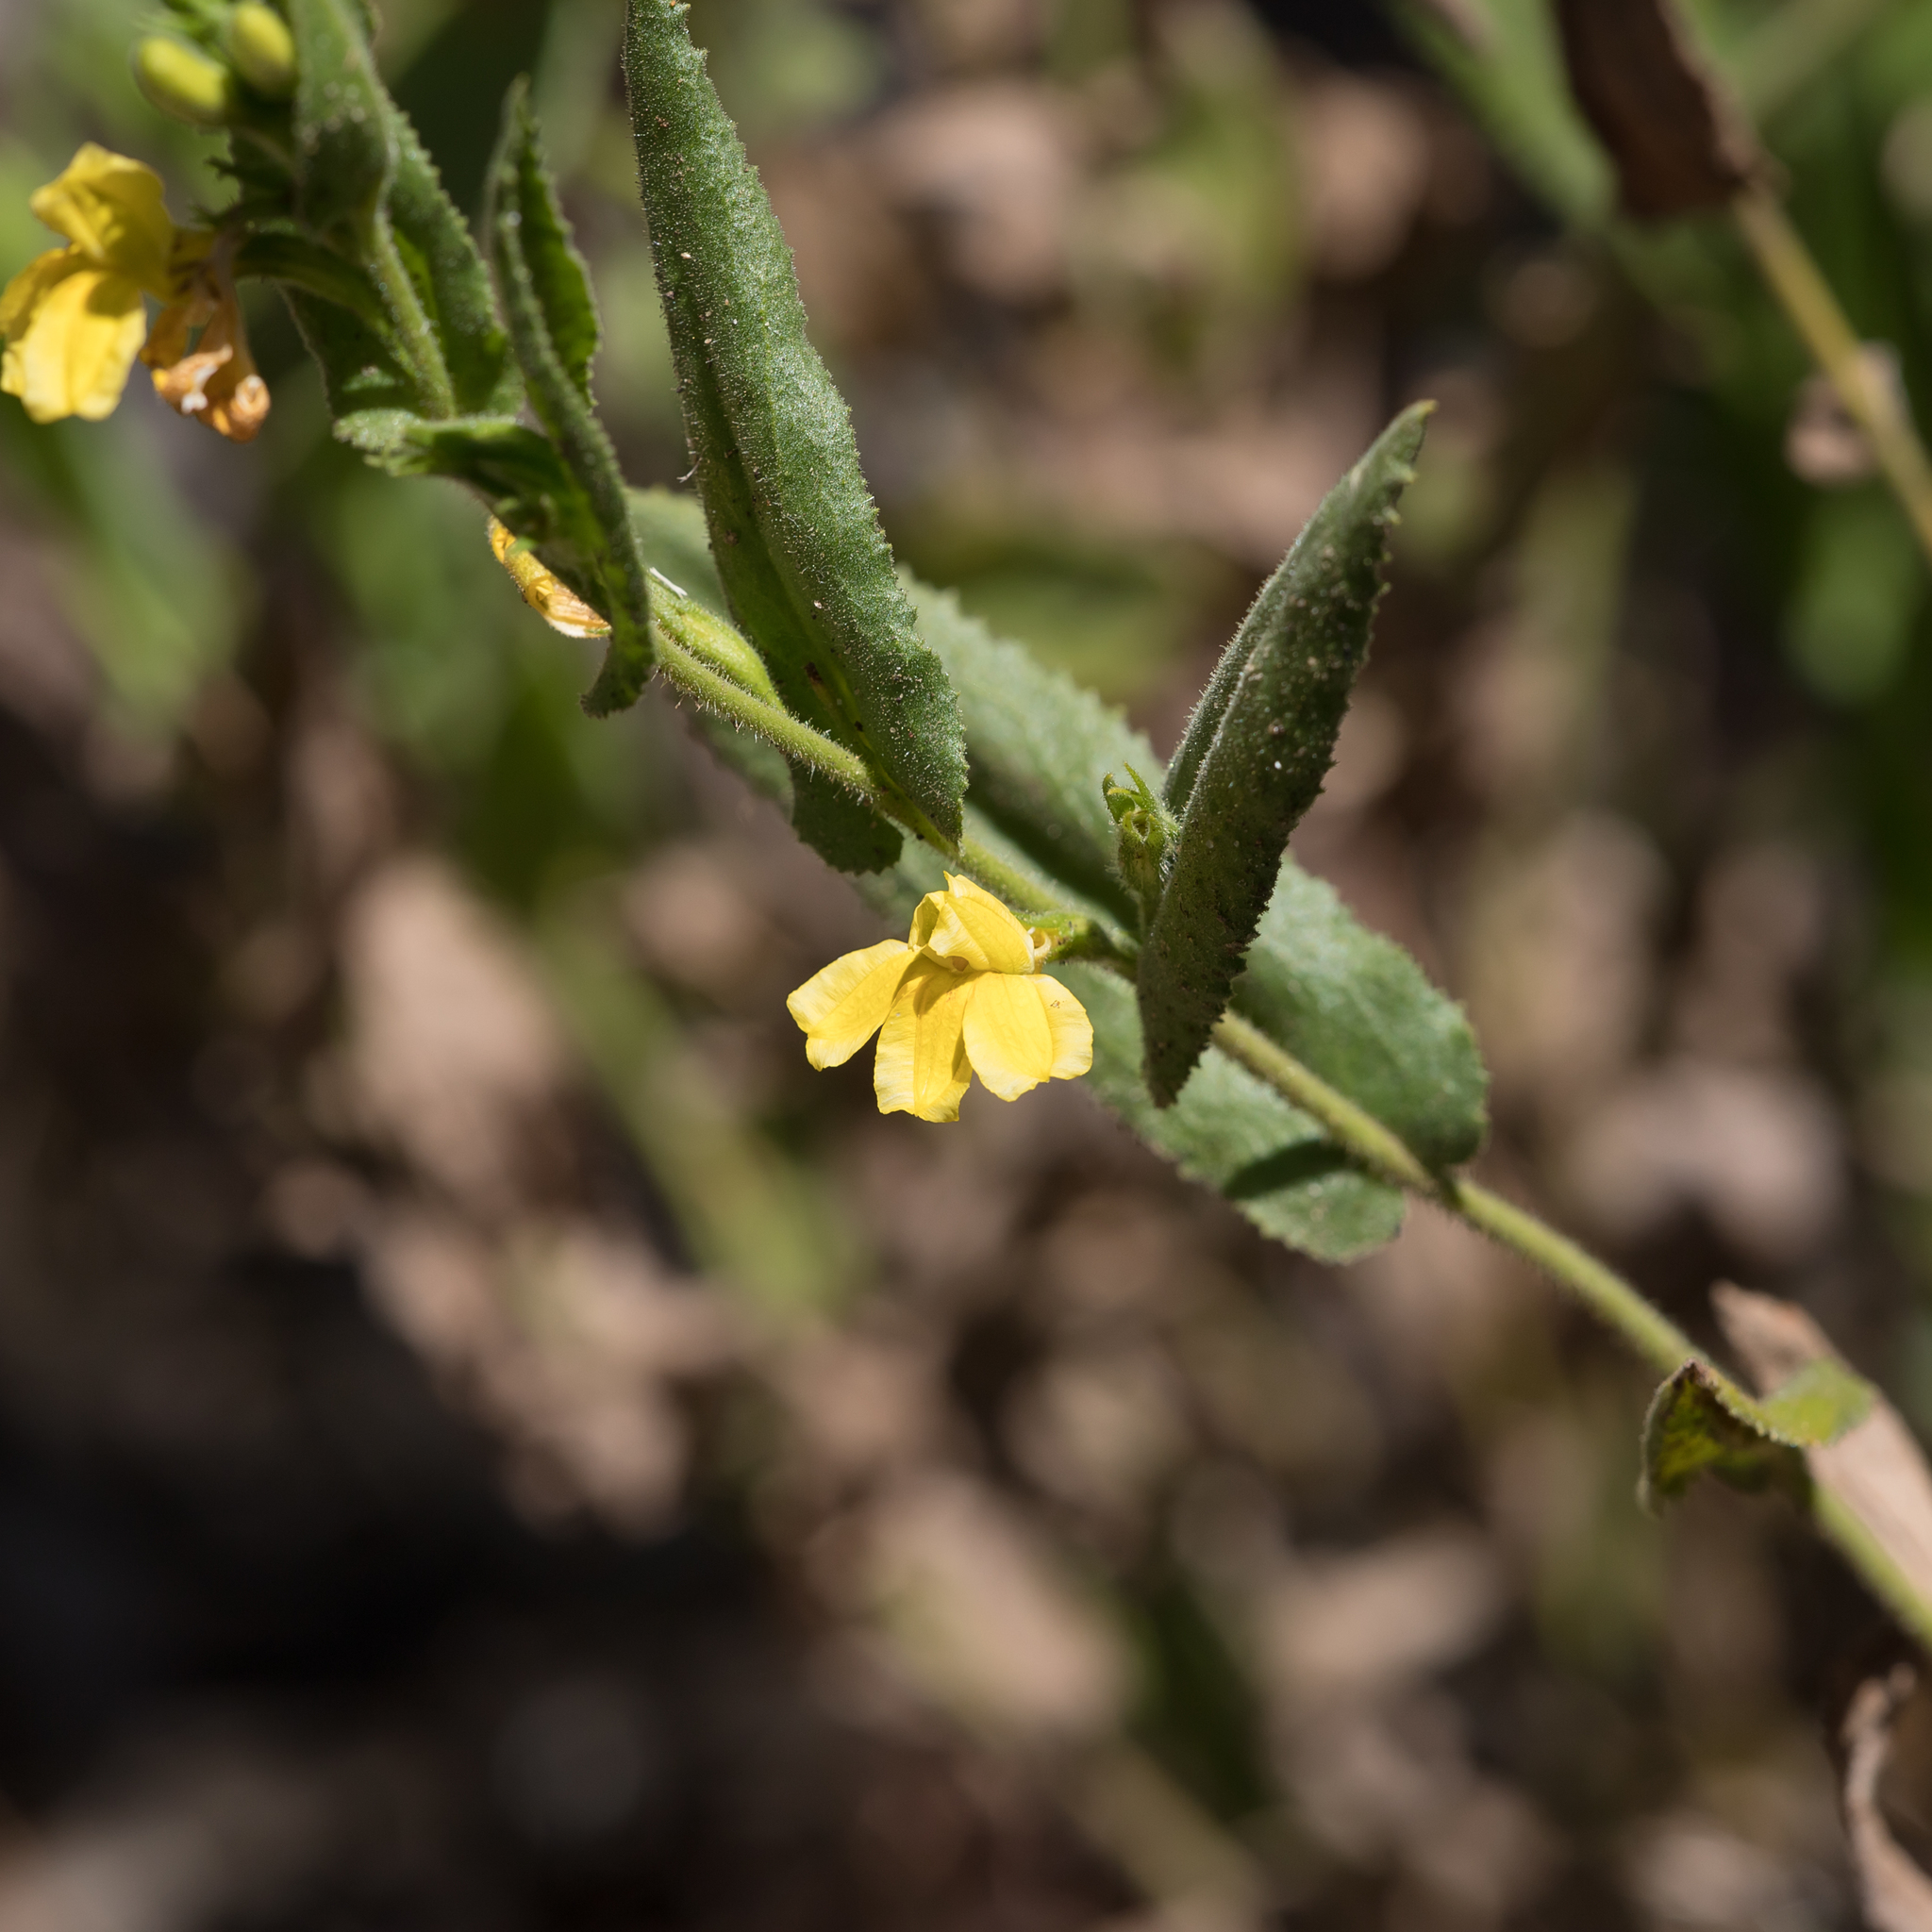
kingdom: Plantae
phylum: Tracheophyta
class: Magnoliopsida
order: Asterales
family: Goodeniaceae
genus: Goodenia
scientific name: Goodenia amplexans
